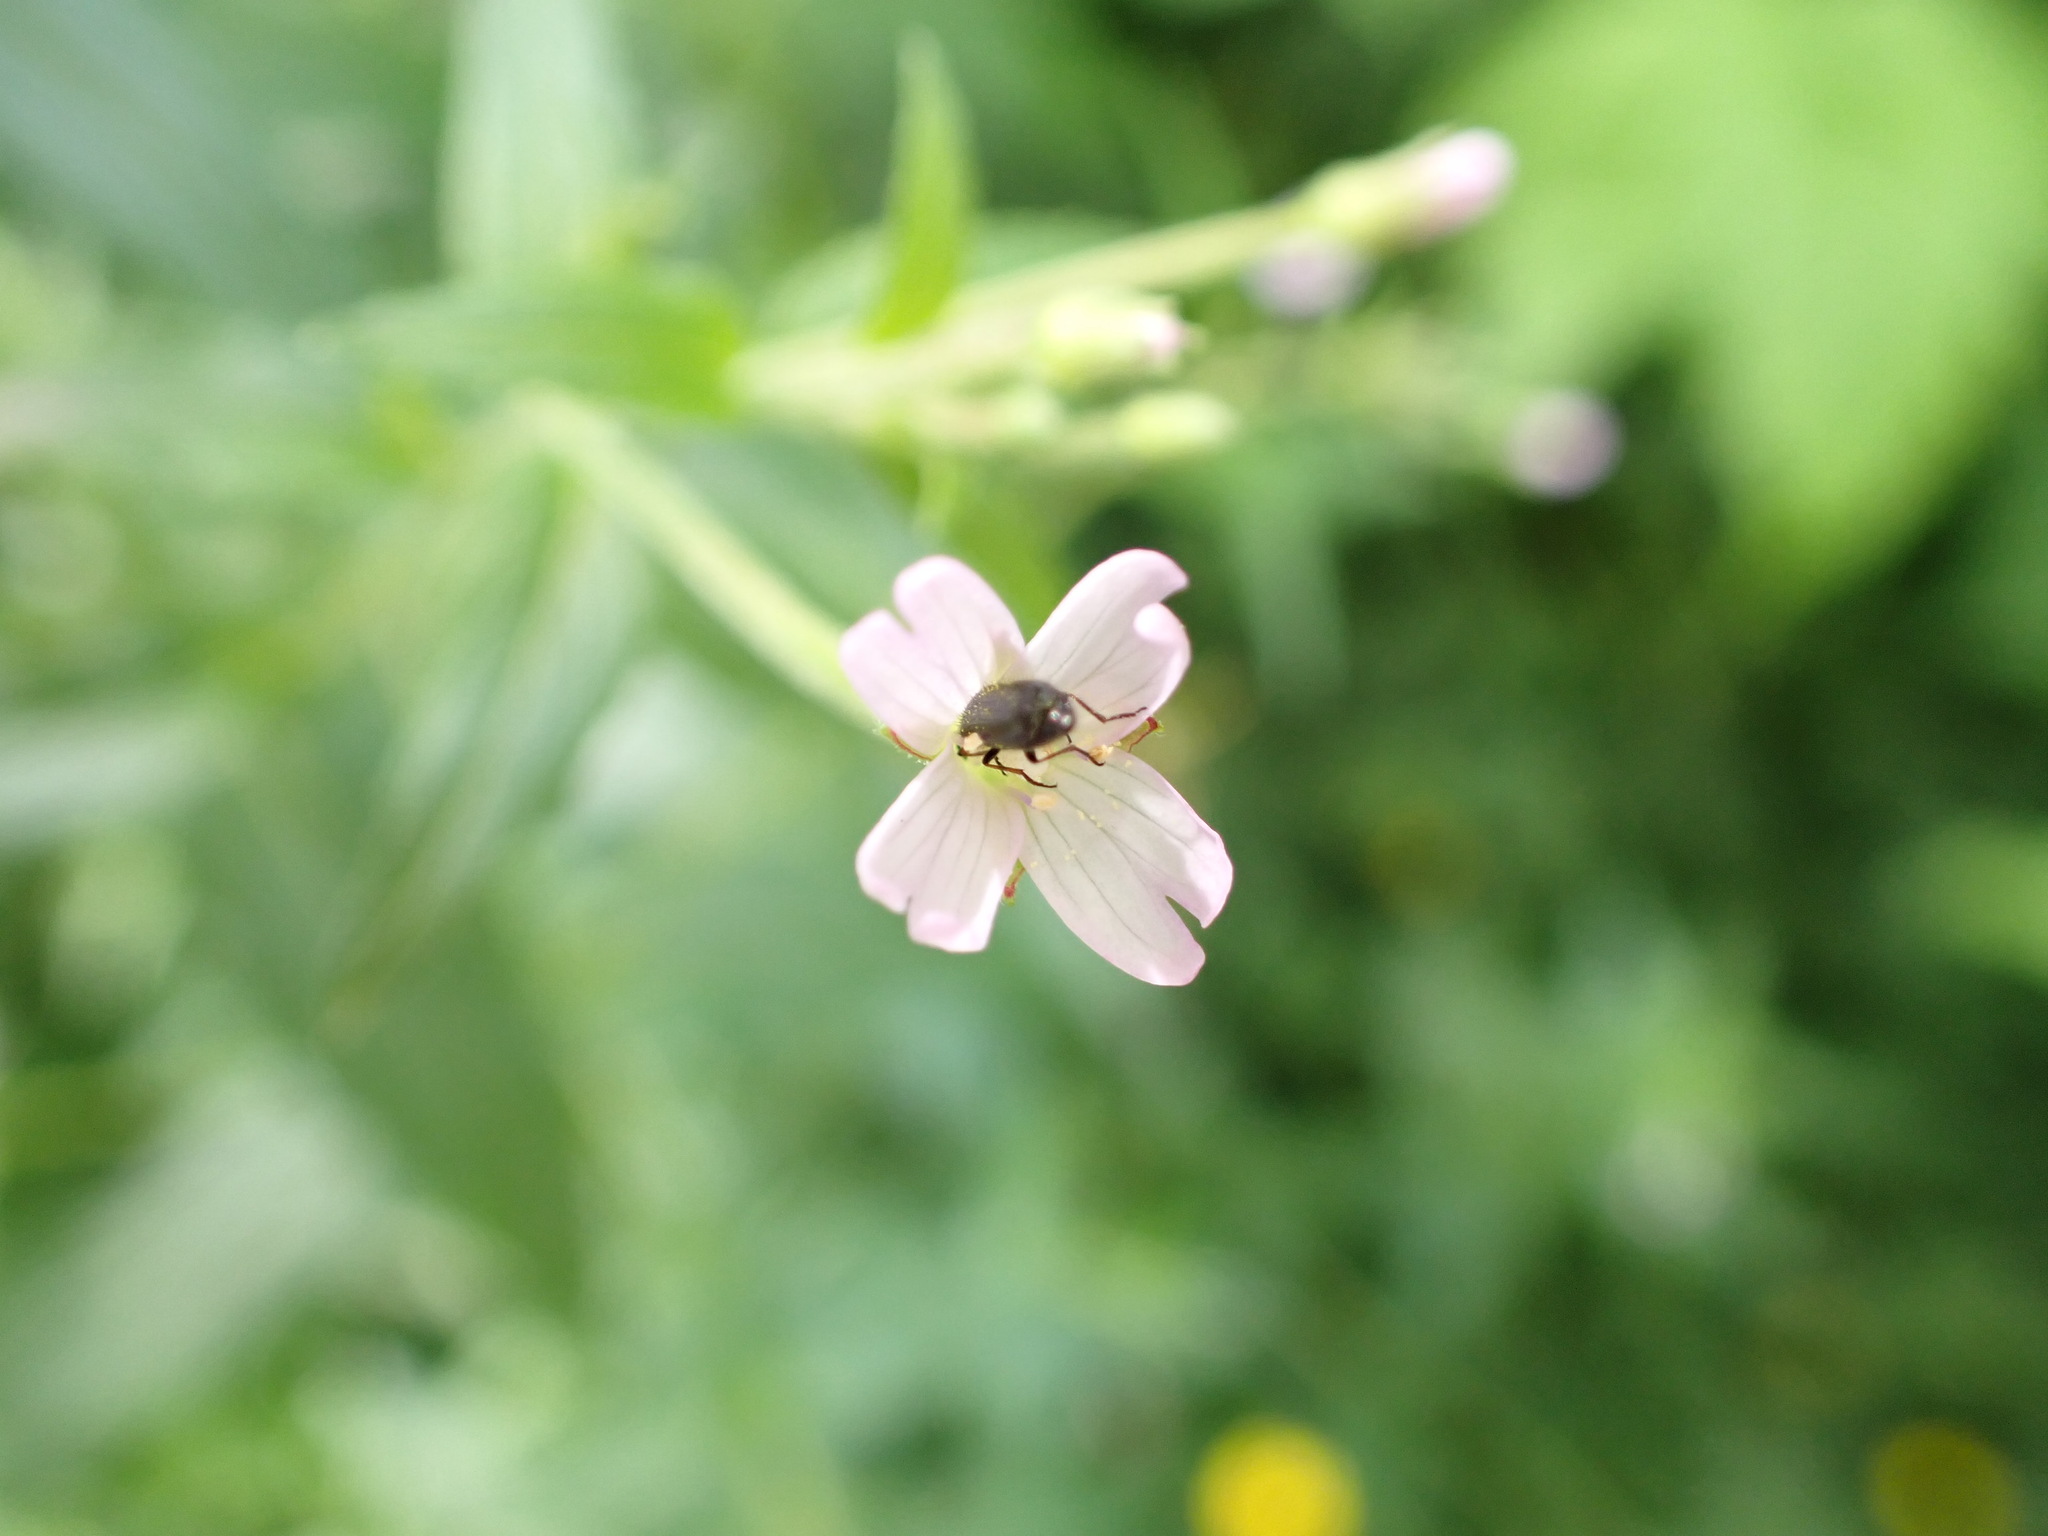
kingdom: Plantae
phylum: Tracheophyta
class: Magnoliopsida
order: Myrtales
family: Onagraceae
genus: Epilobium
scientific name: Epilobium ciliatum
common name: American willowherb
